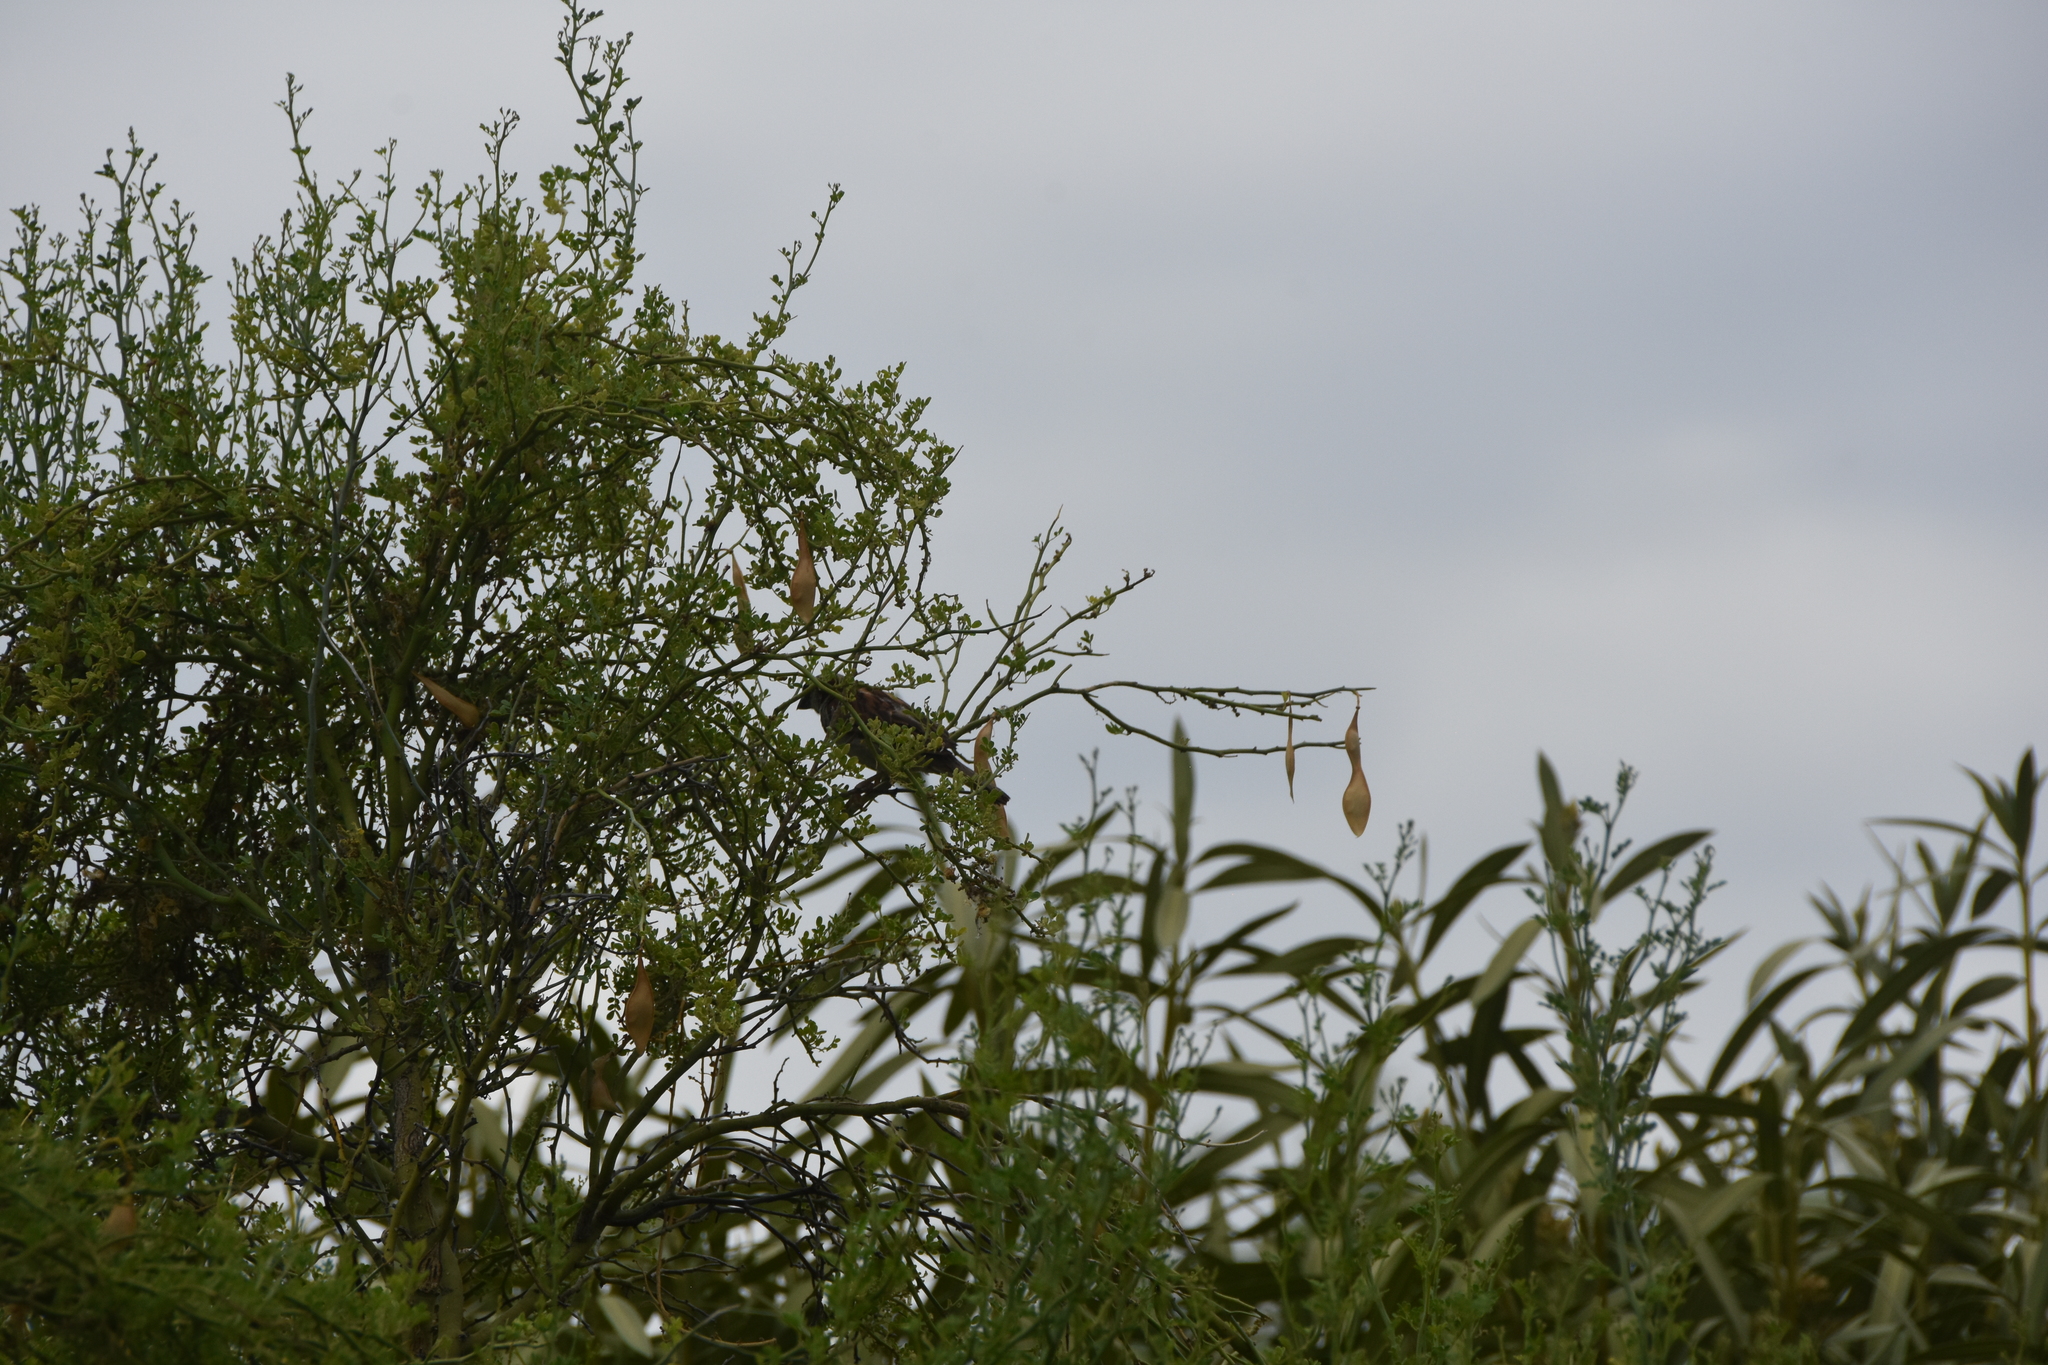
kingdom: Animalia
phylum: Chordata
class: Aves
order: Passeriformes
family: Passeridae
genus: Passer
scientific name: Passer domesticus
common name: House sparrow
